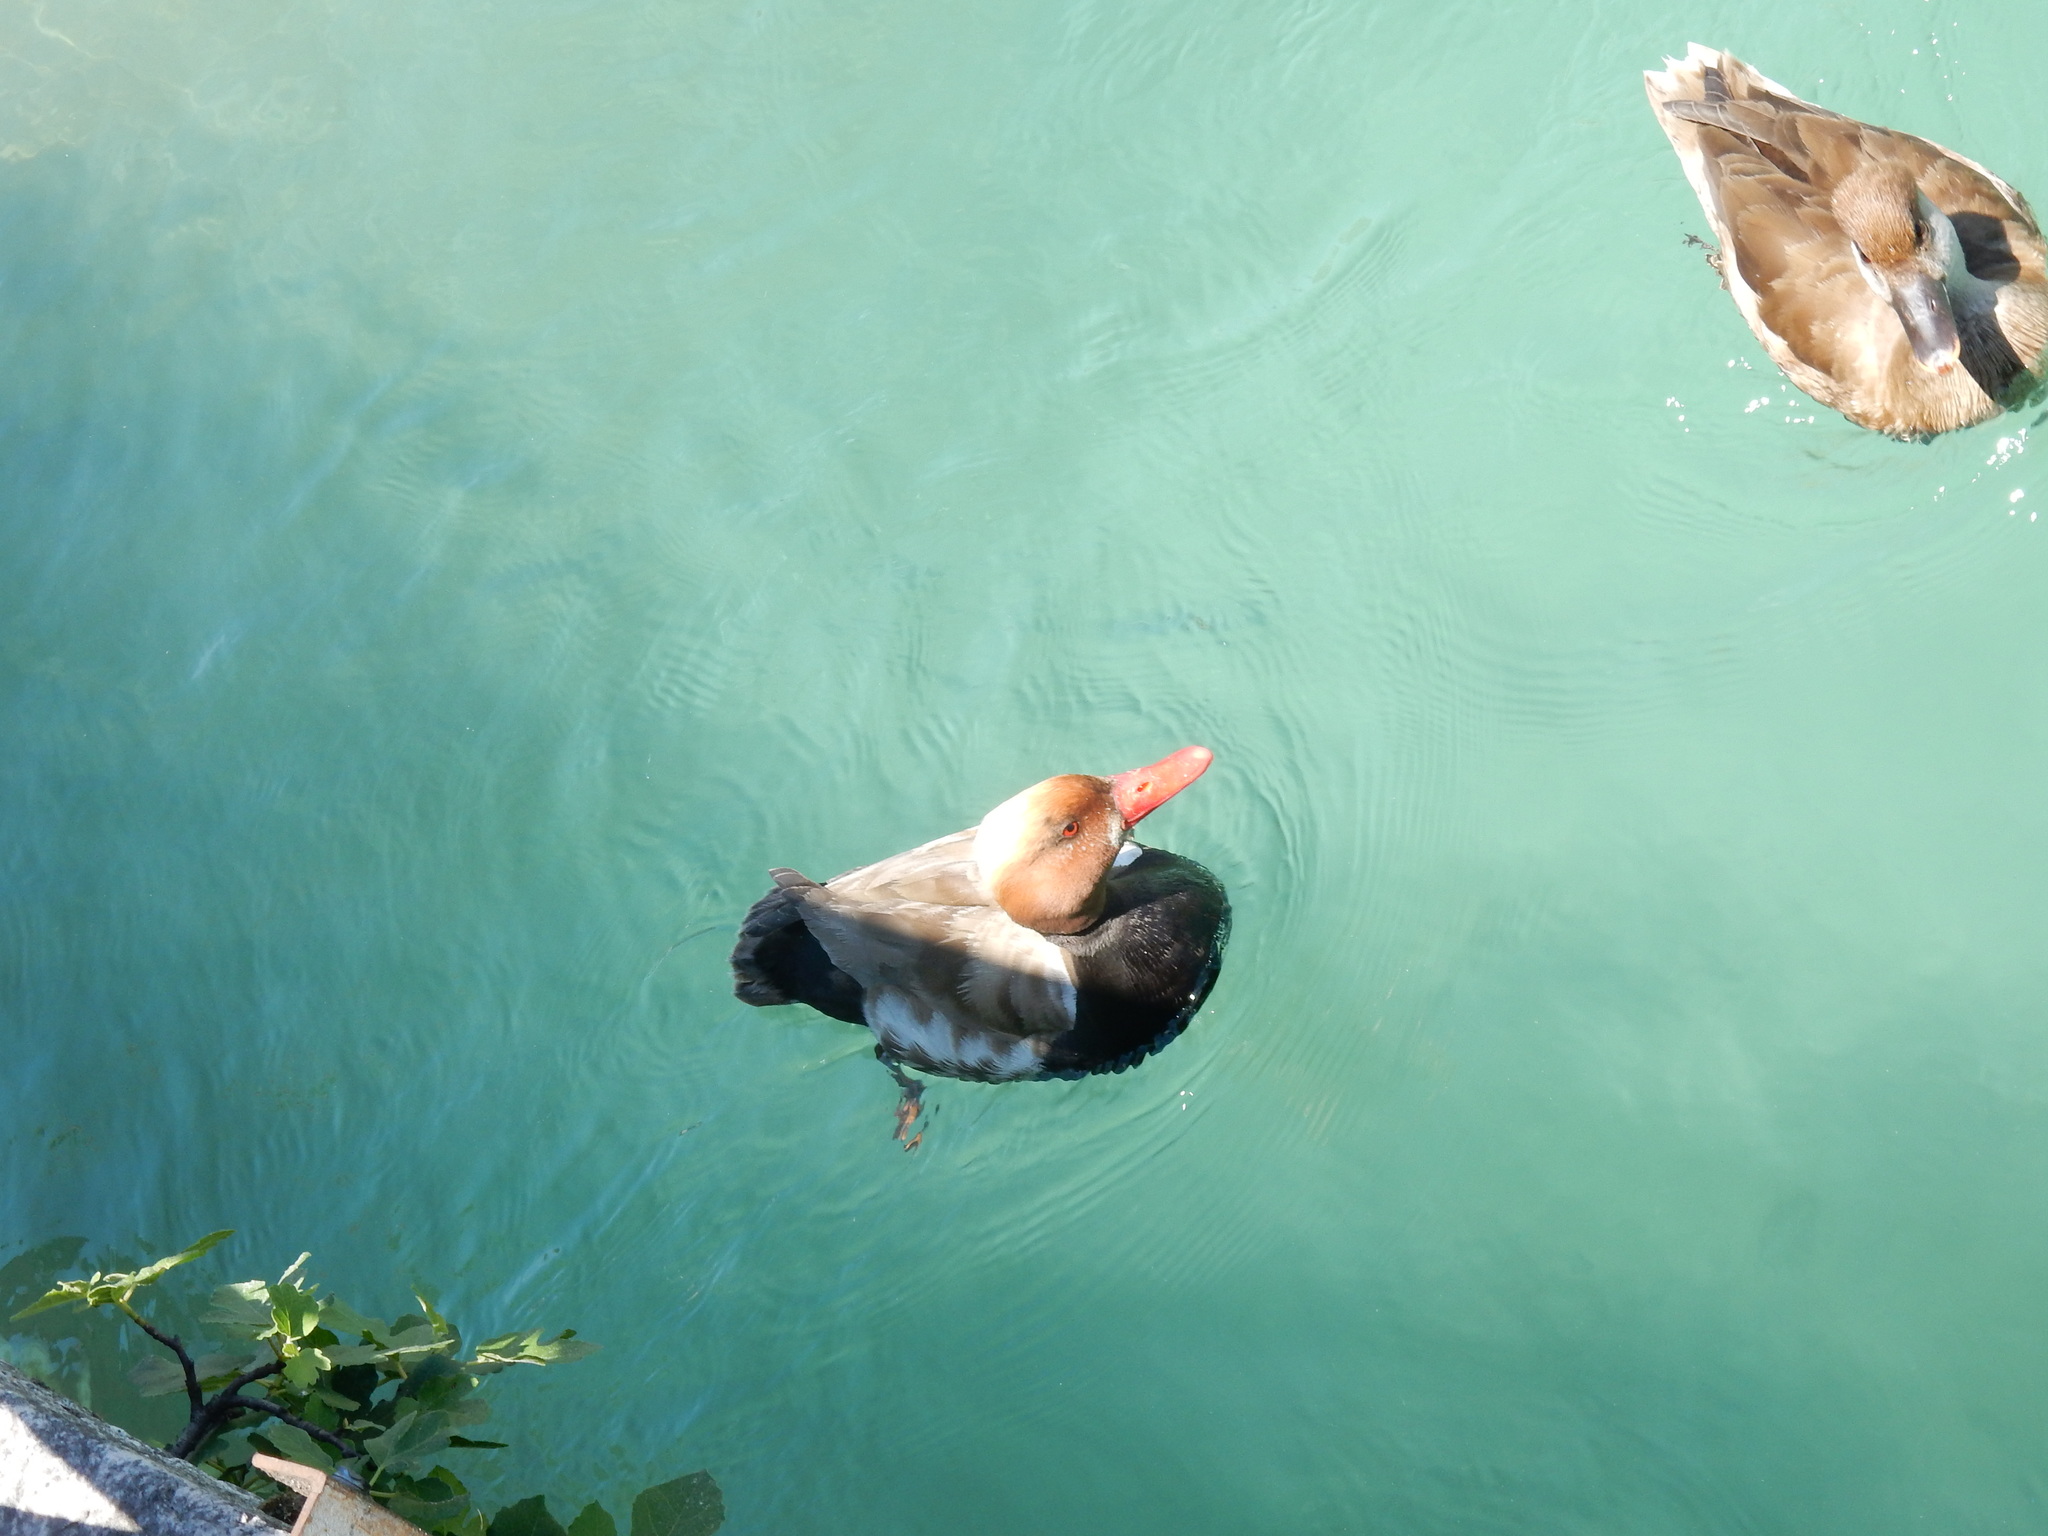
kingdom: Animalia
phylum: Chordata
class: Aves
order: Anseriformes
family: Anatidae
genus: Netta
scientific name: Netta rufina
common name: Red-crested pochard
